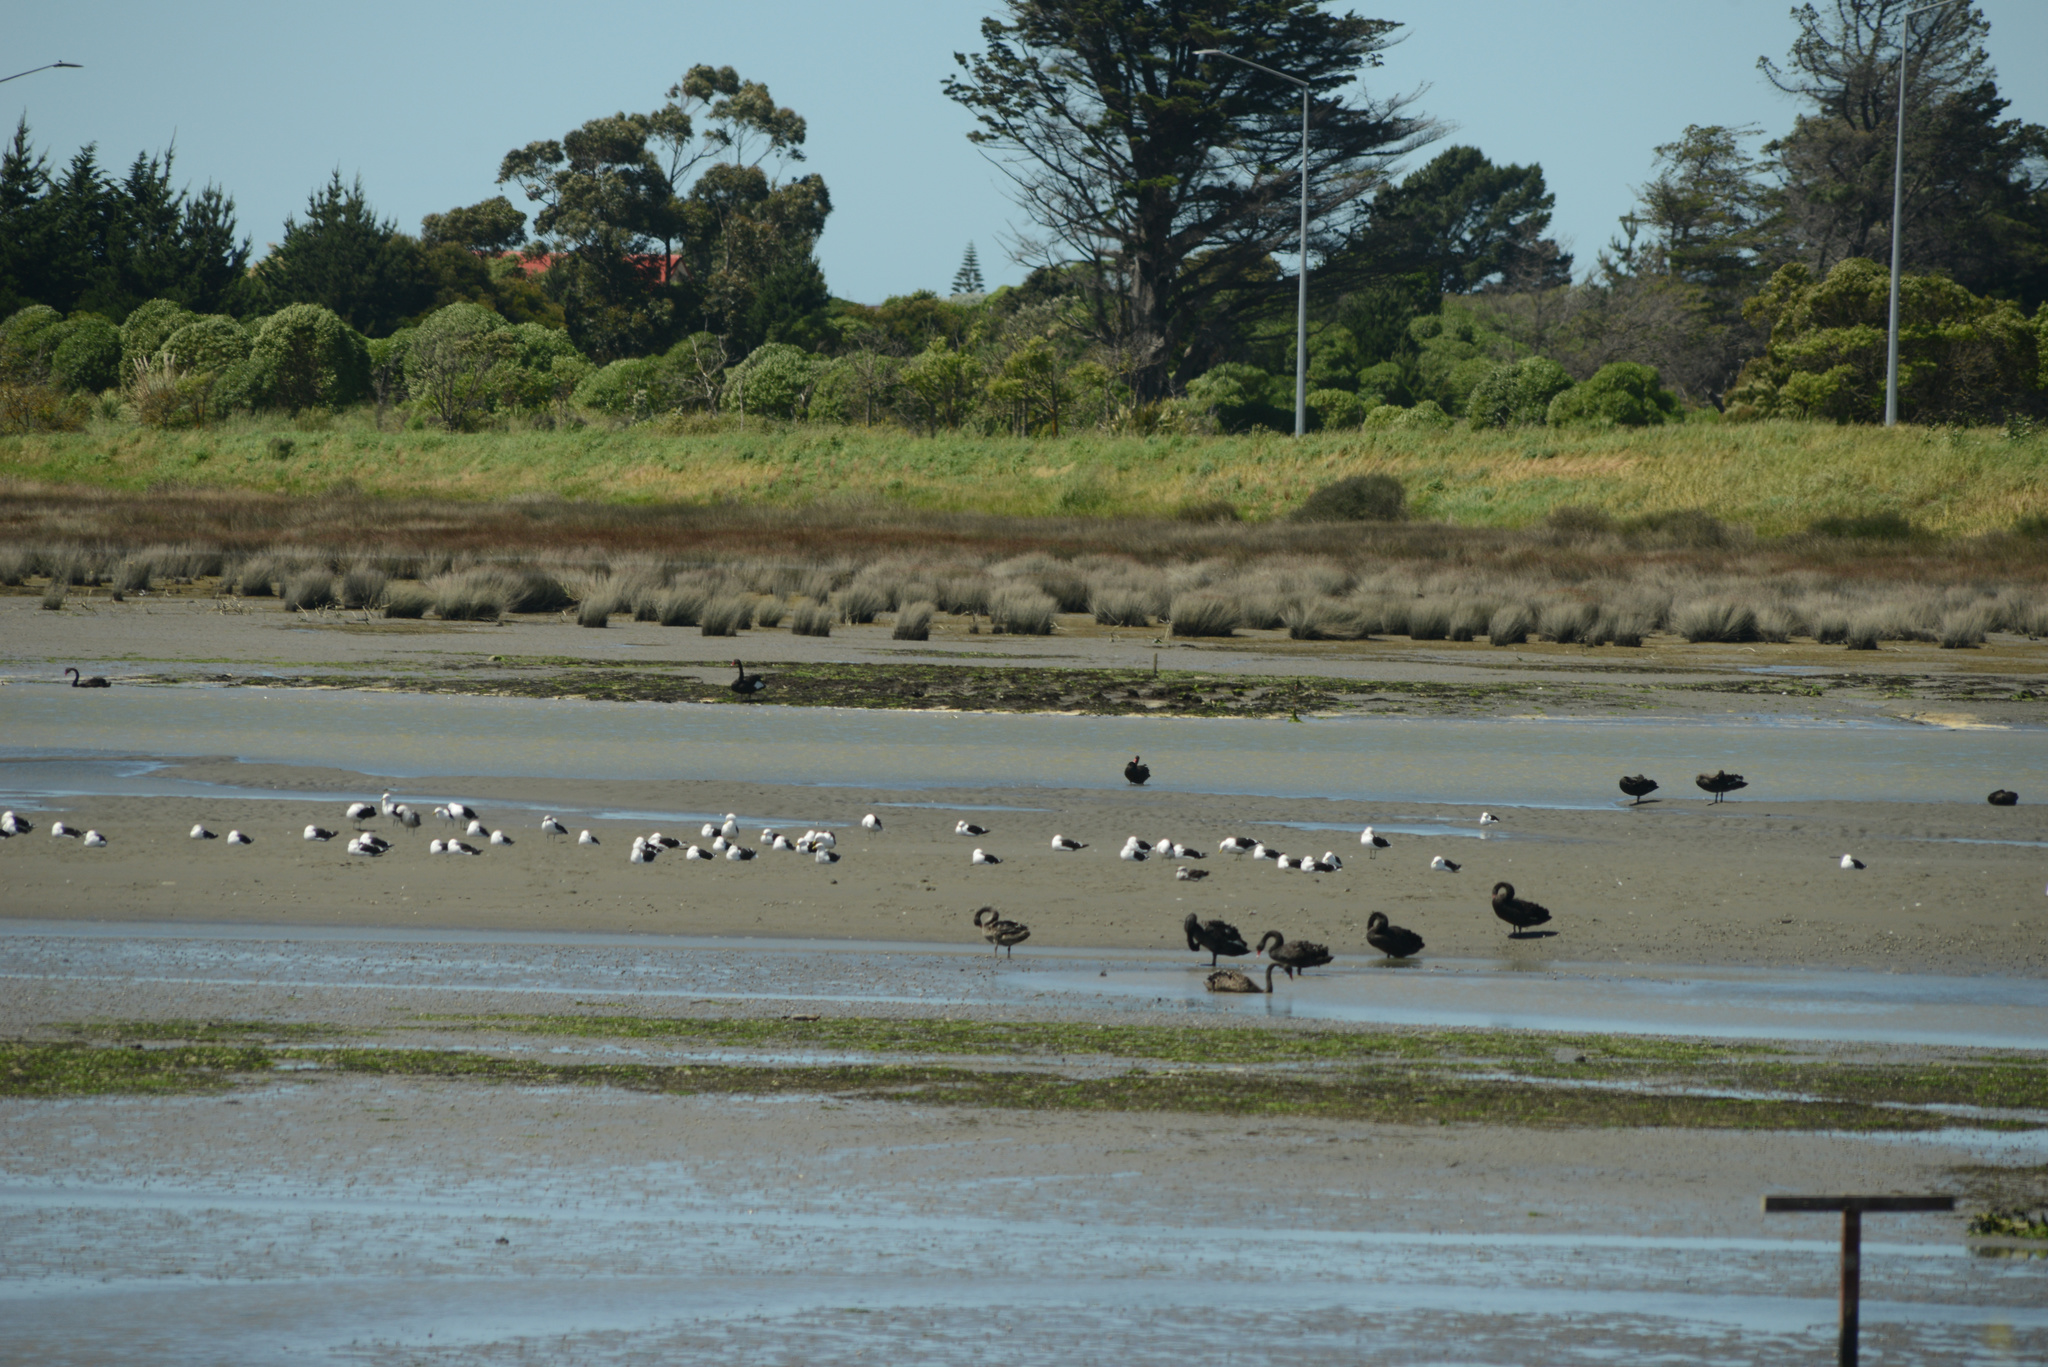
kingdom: Animalia
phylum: Chordata
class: Aves
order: Anseriformes
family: Anatidae
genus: Cygnus
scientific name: Cygnus atratus
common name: Black swan
